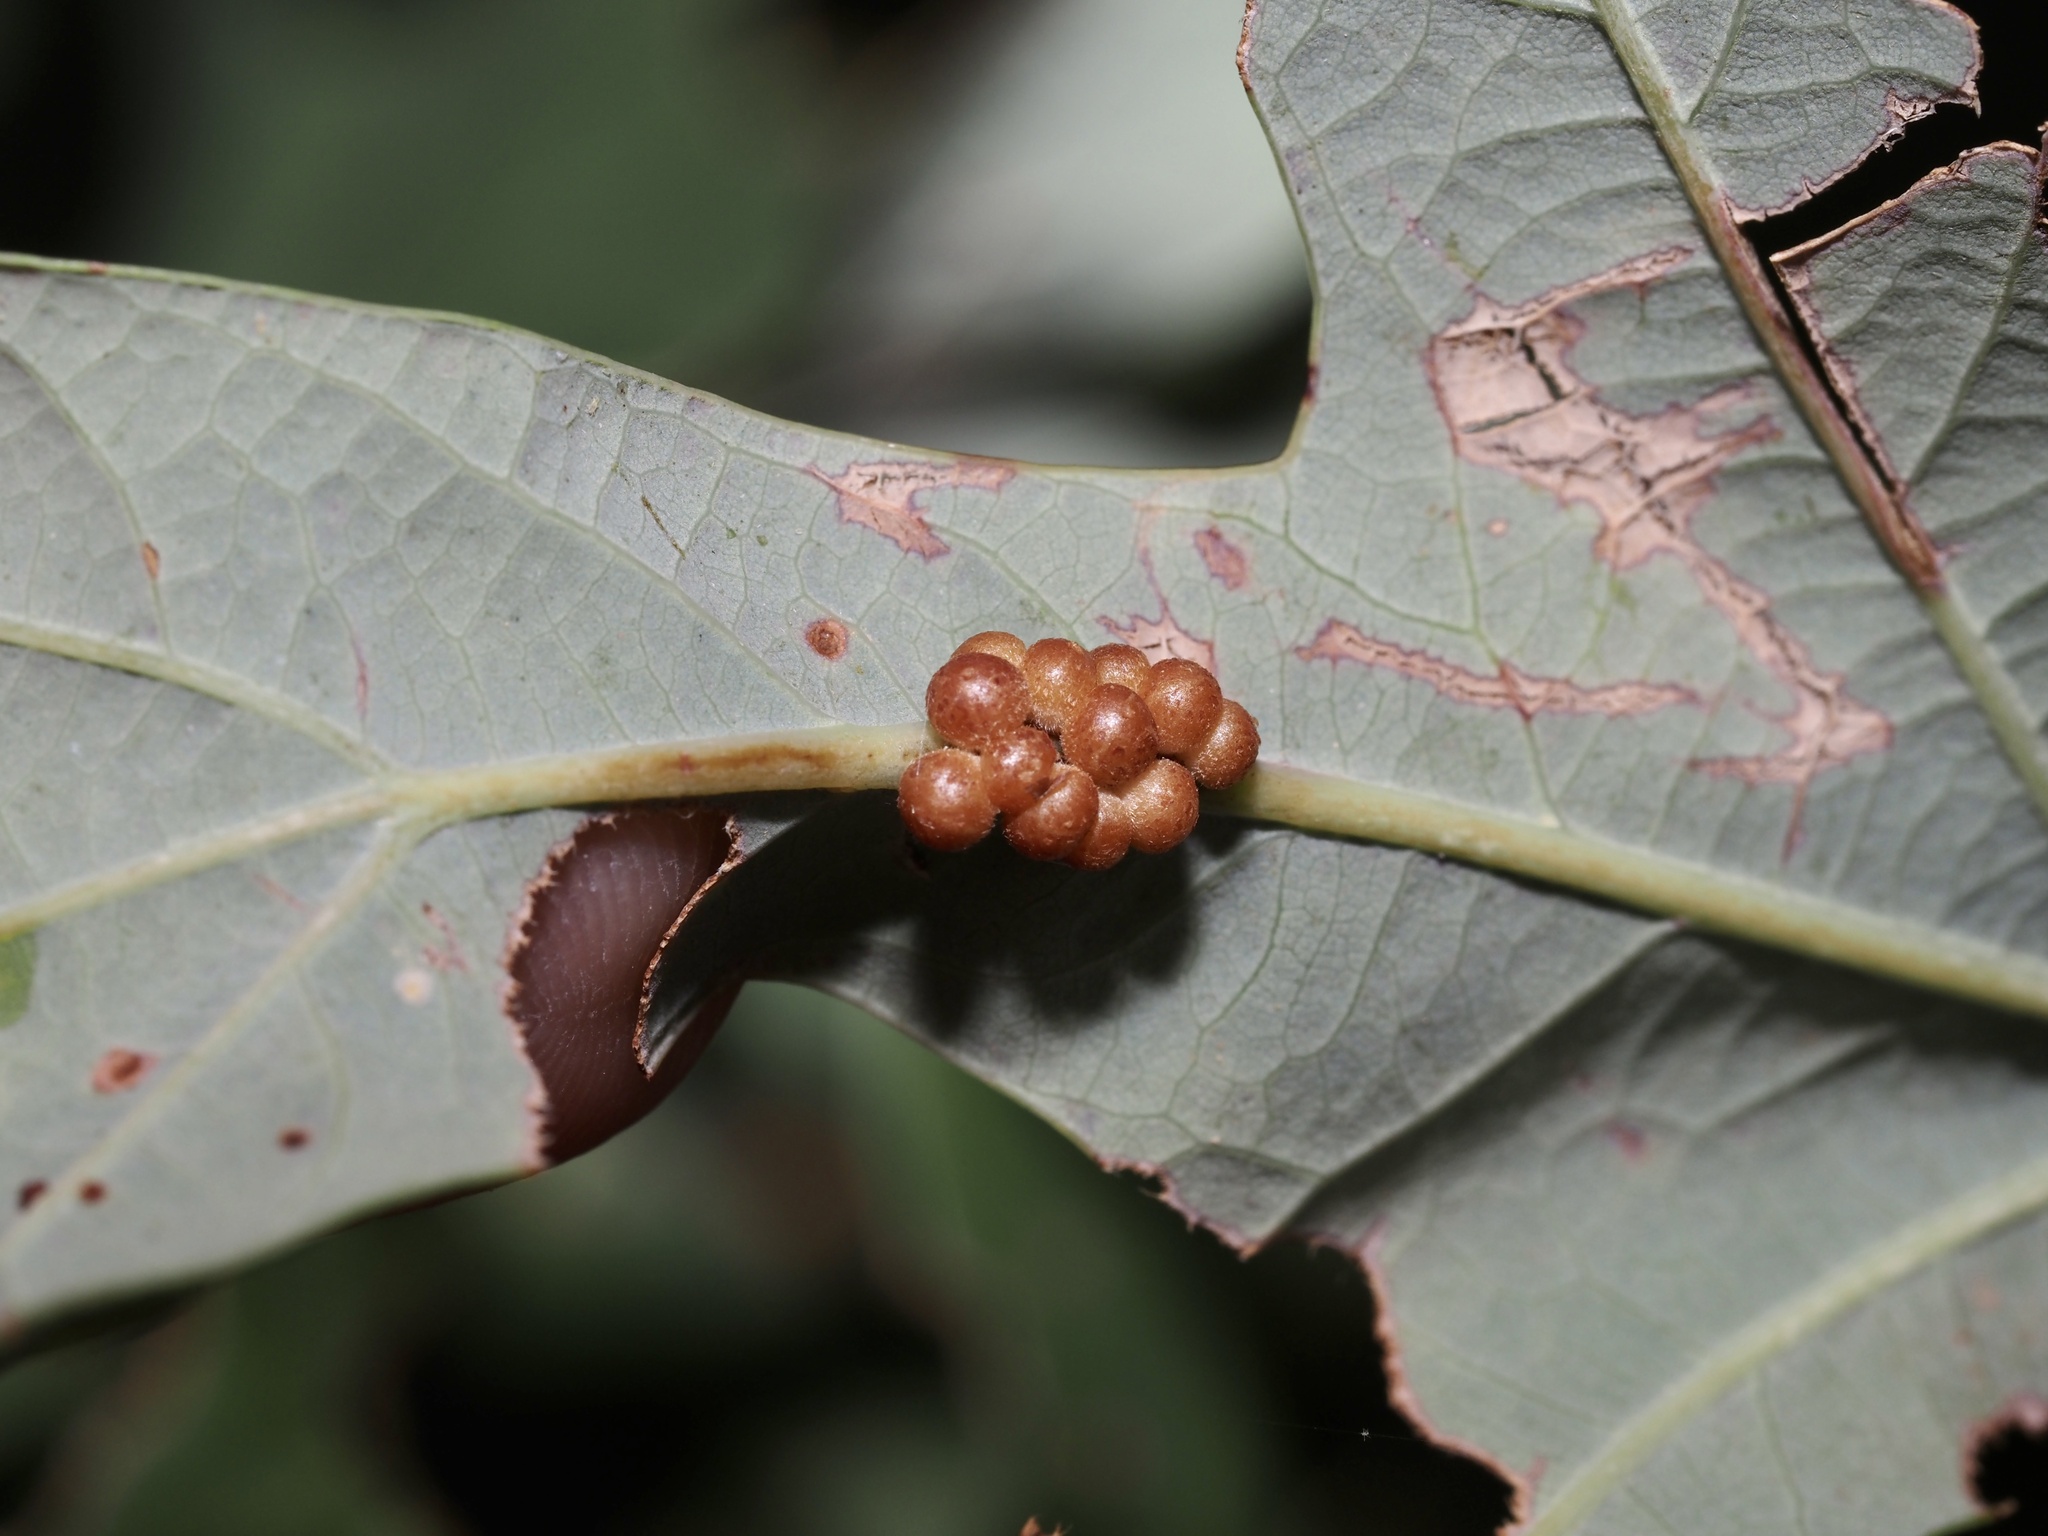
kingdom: Animalia
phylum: Arthropoda
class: Insecta
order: Hymenoptera
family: Cynipidae
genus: Andricus
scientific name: Andricus
